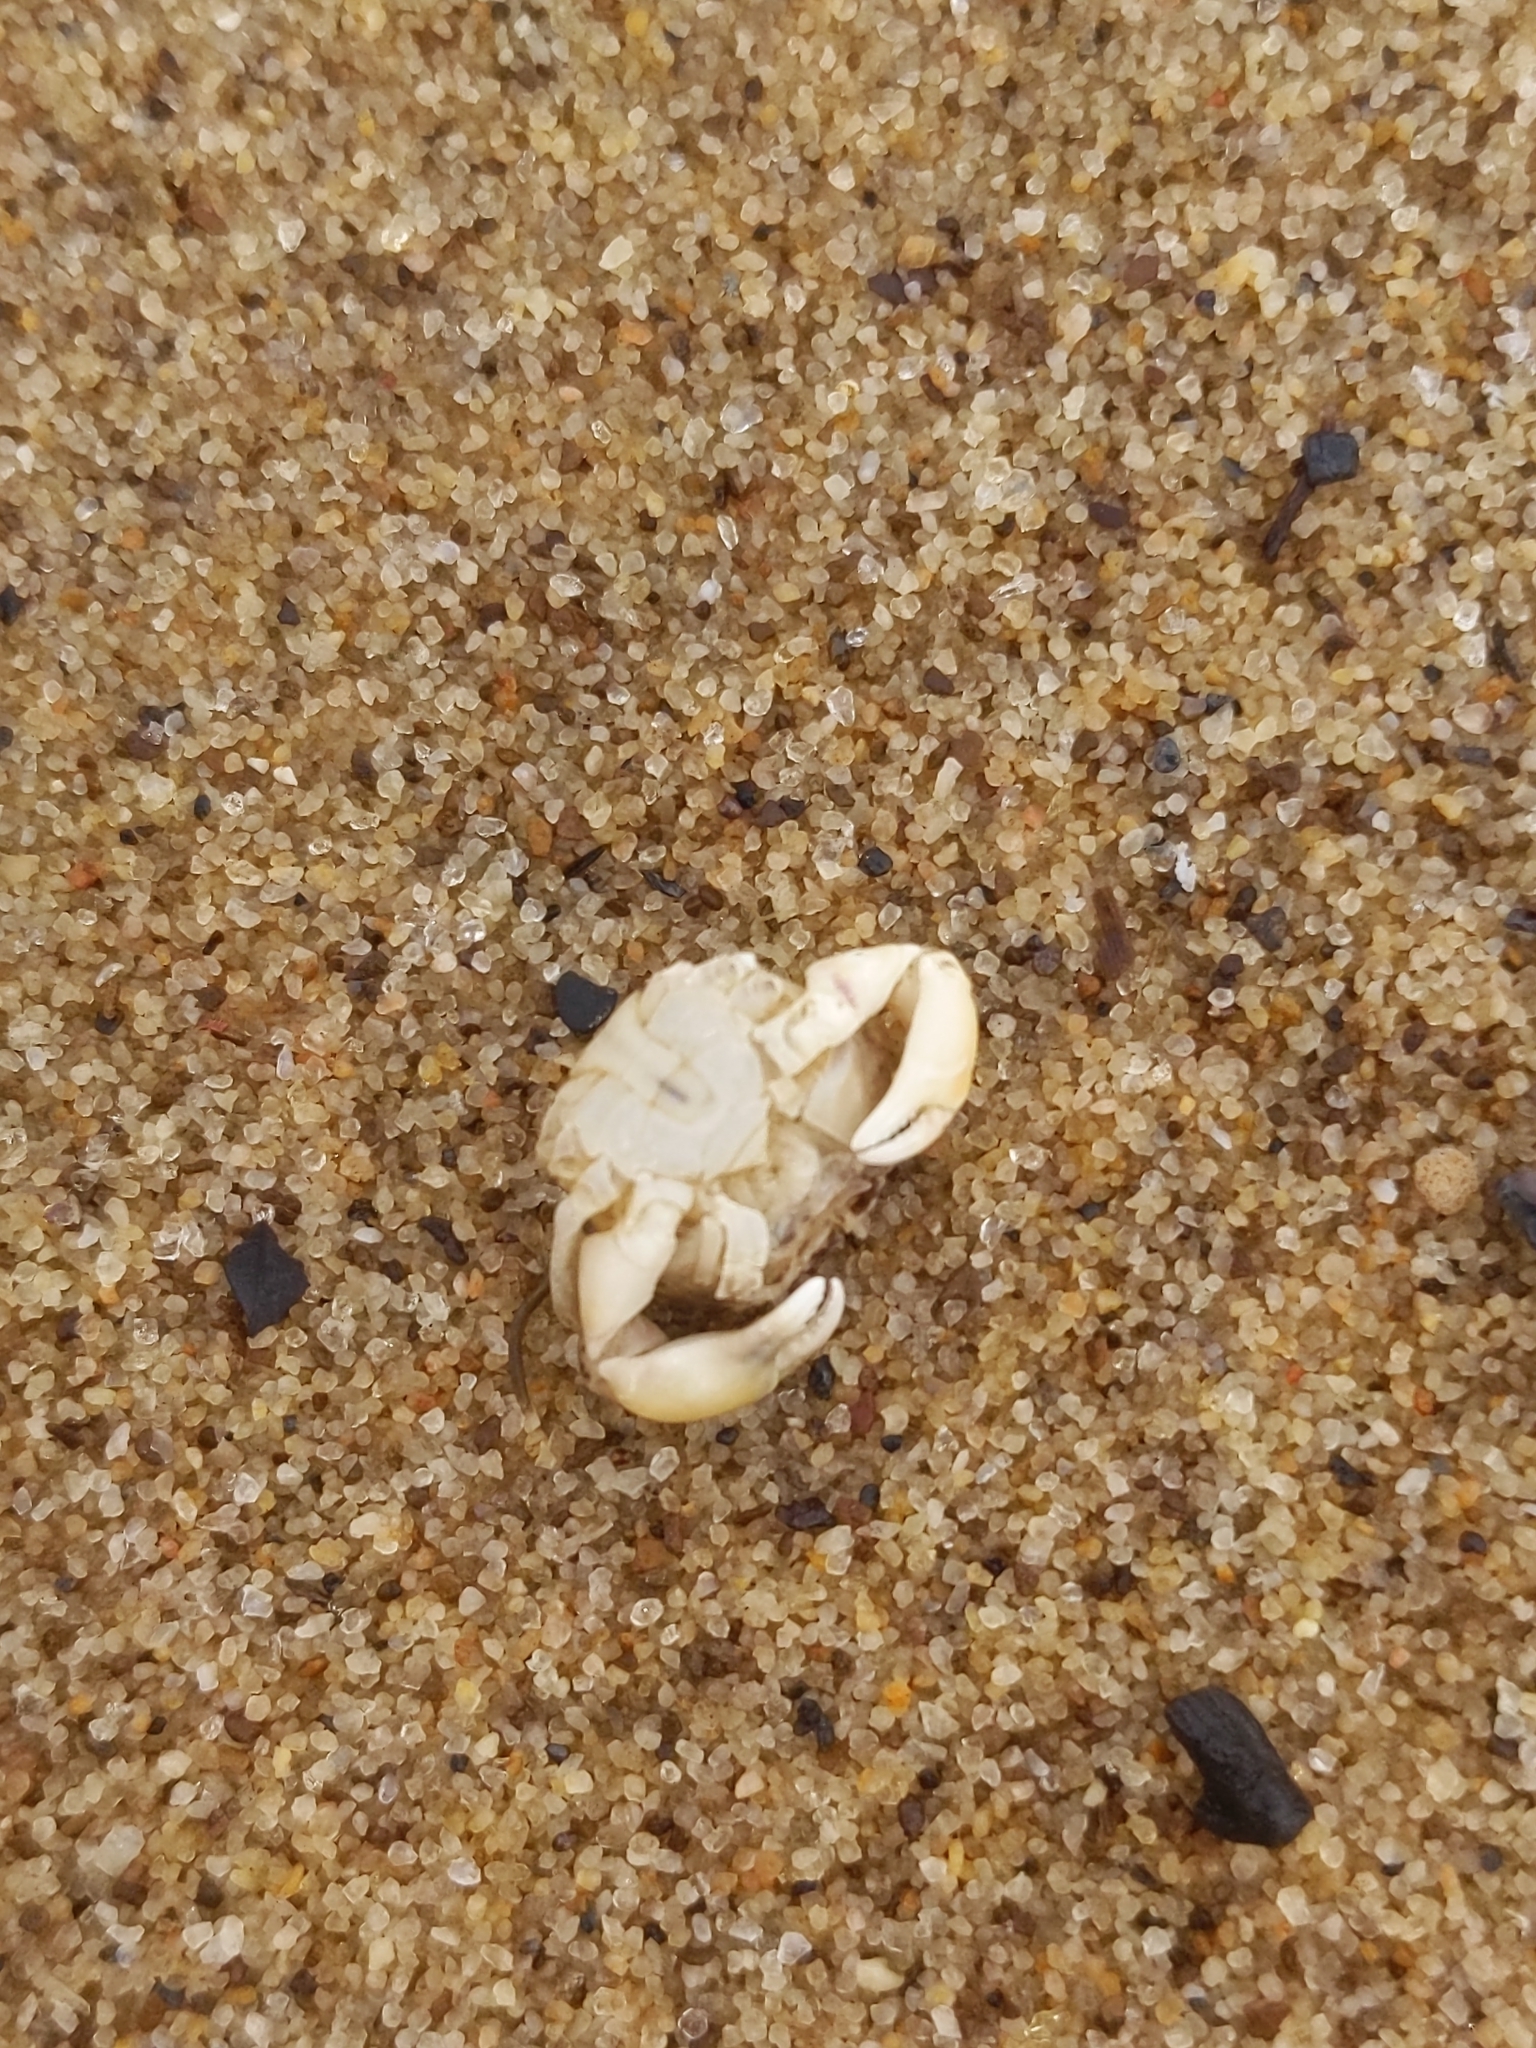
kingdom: Animalia
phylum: Arthropoda
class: Malacostraca
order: Decapoda
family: Panopeidae
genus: Rhithropanopeus
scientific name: Rhithropanopeus harrisii
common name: Dwarf crab
